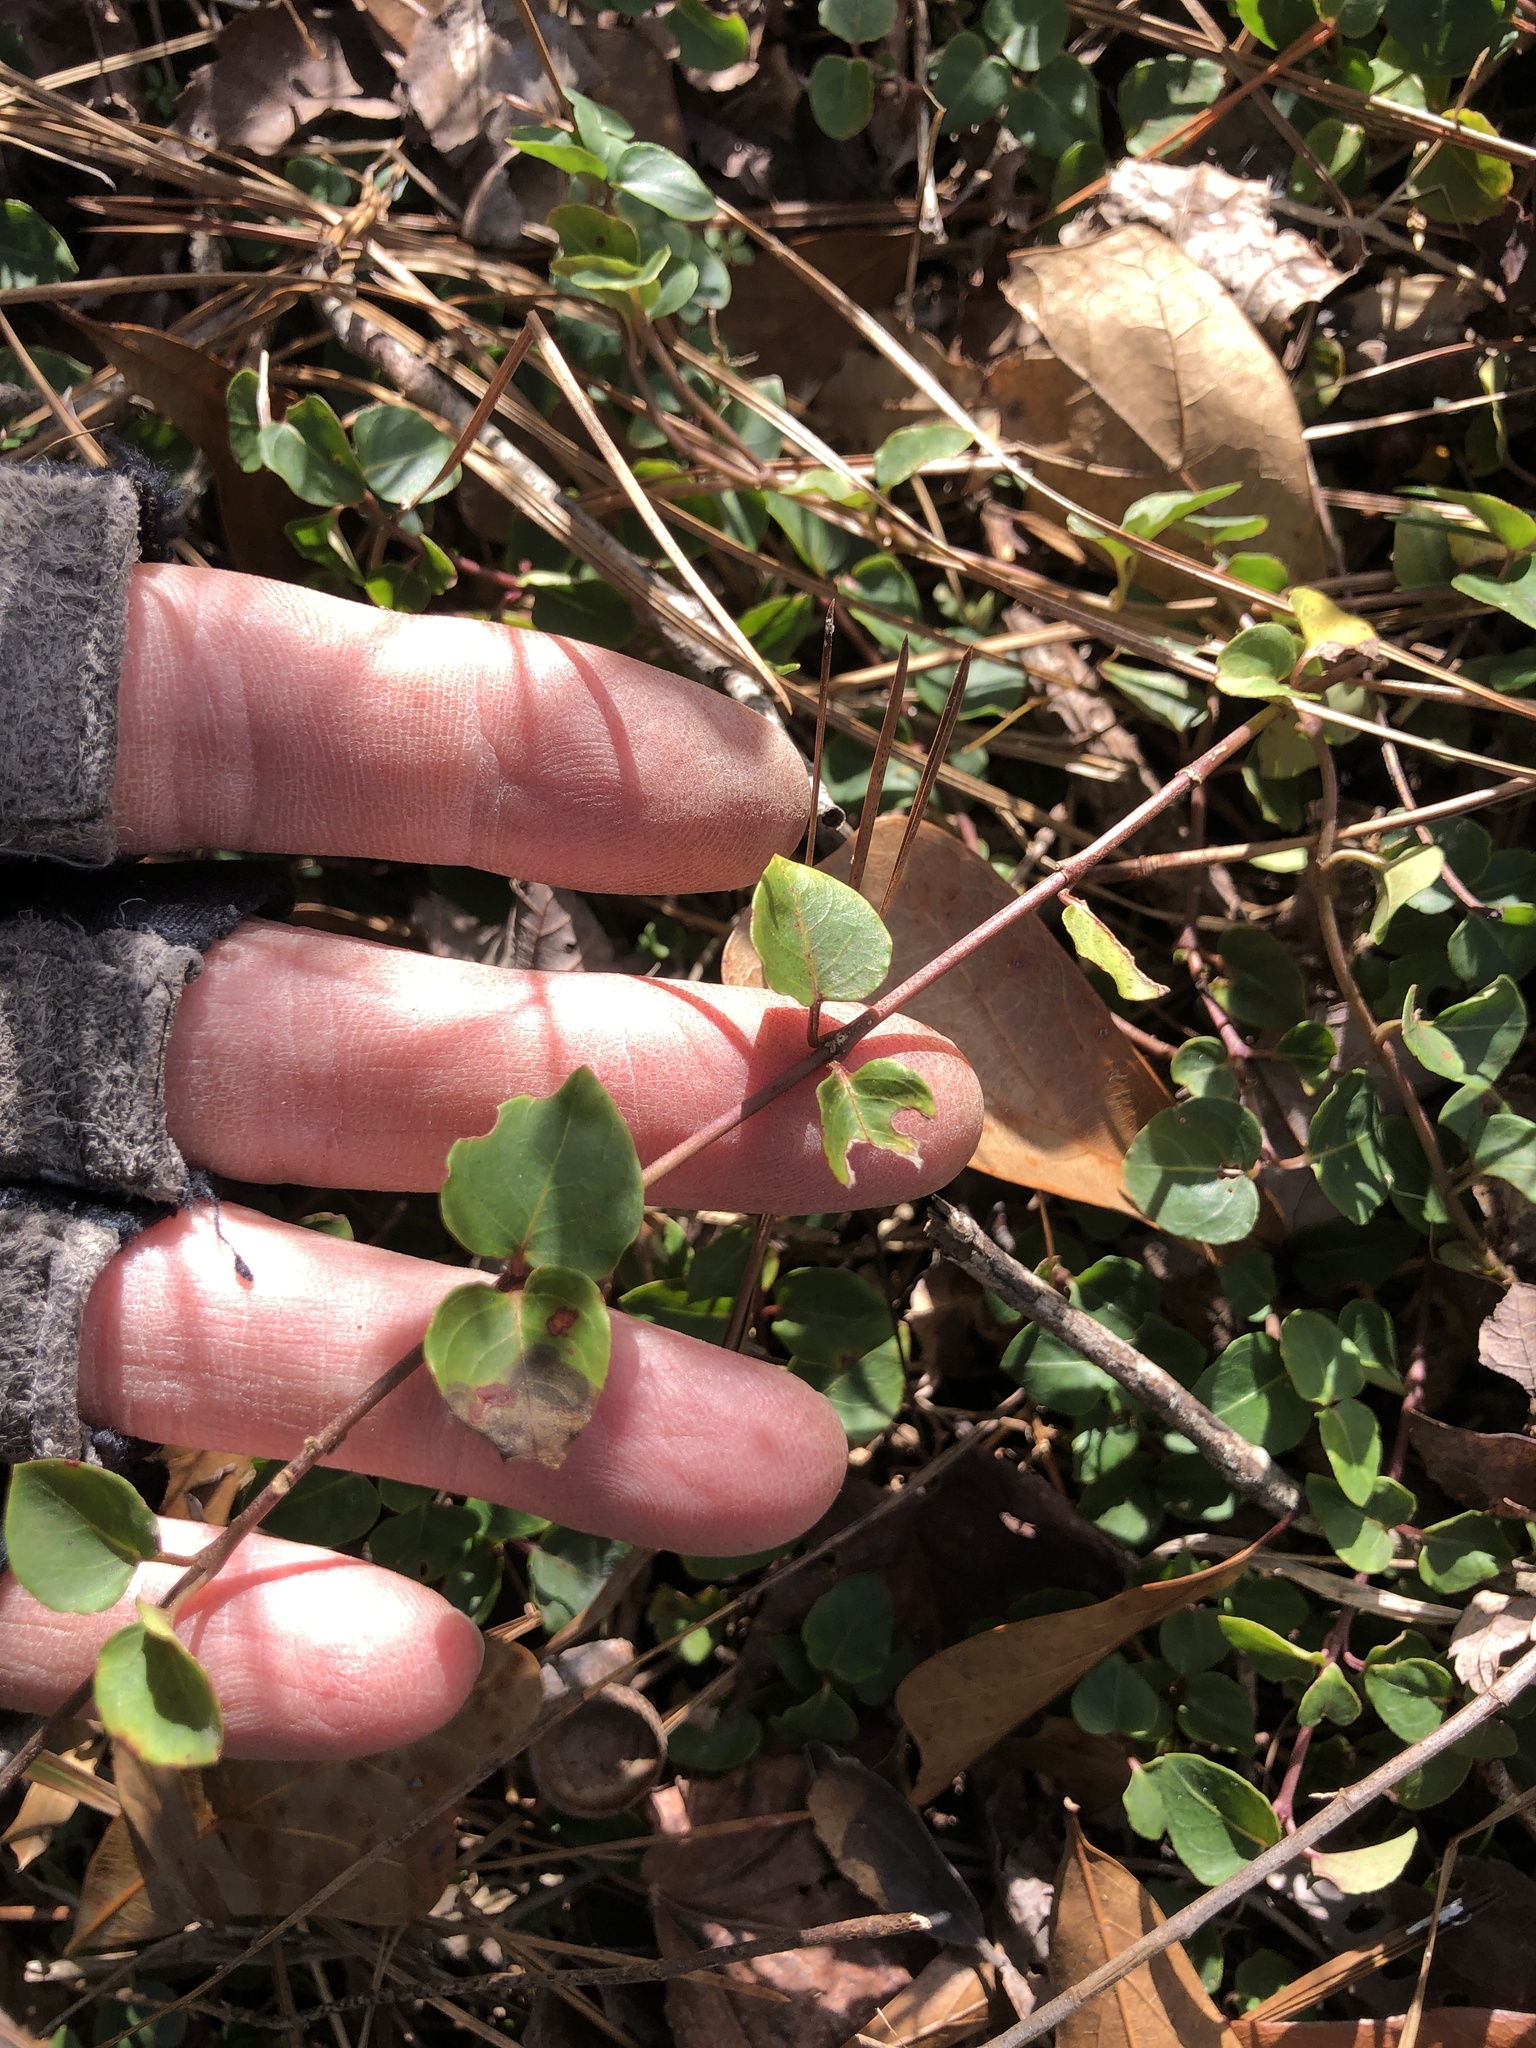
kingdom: Plantae
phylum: Tracheophyta
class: Magnoliopsida
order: Gentianales
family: Rubiaceae
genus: Mitchella
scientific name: Mitchella repens
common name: Partridge-berry
